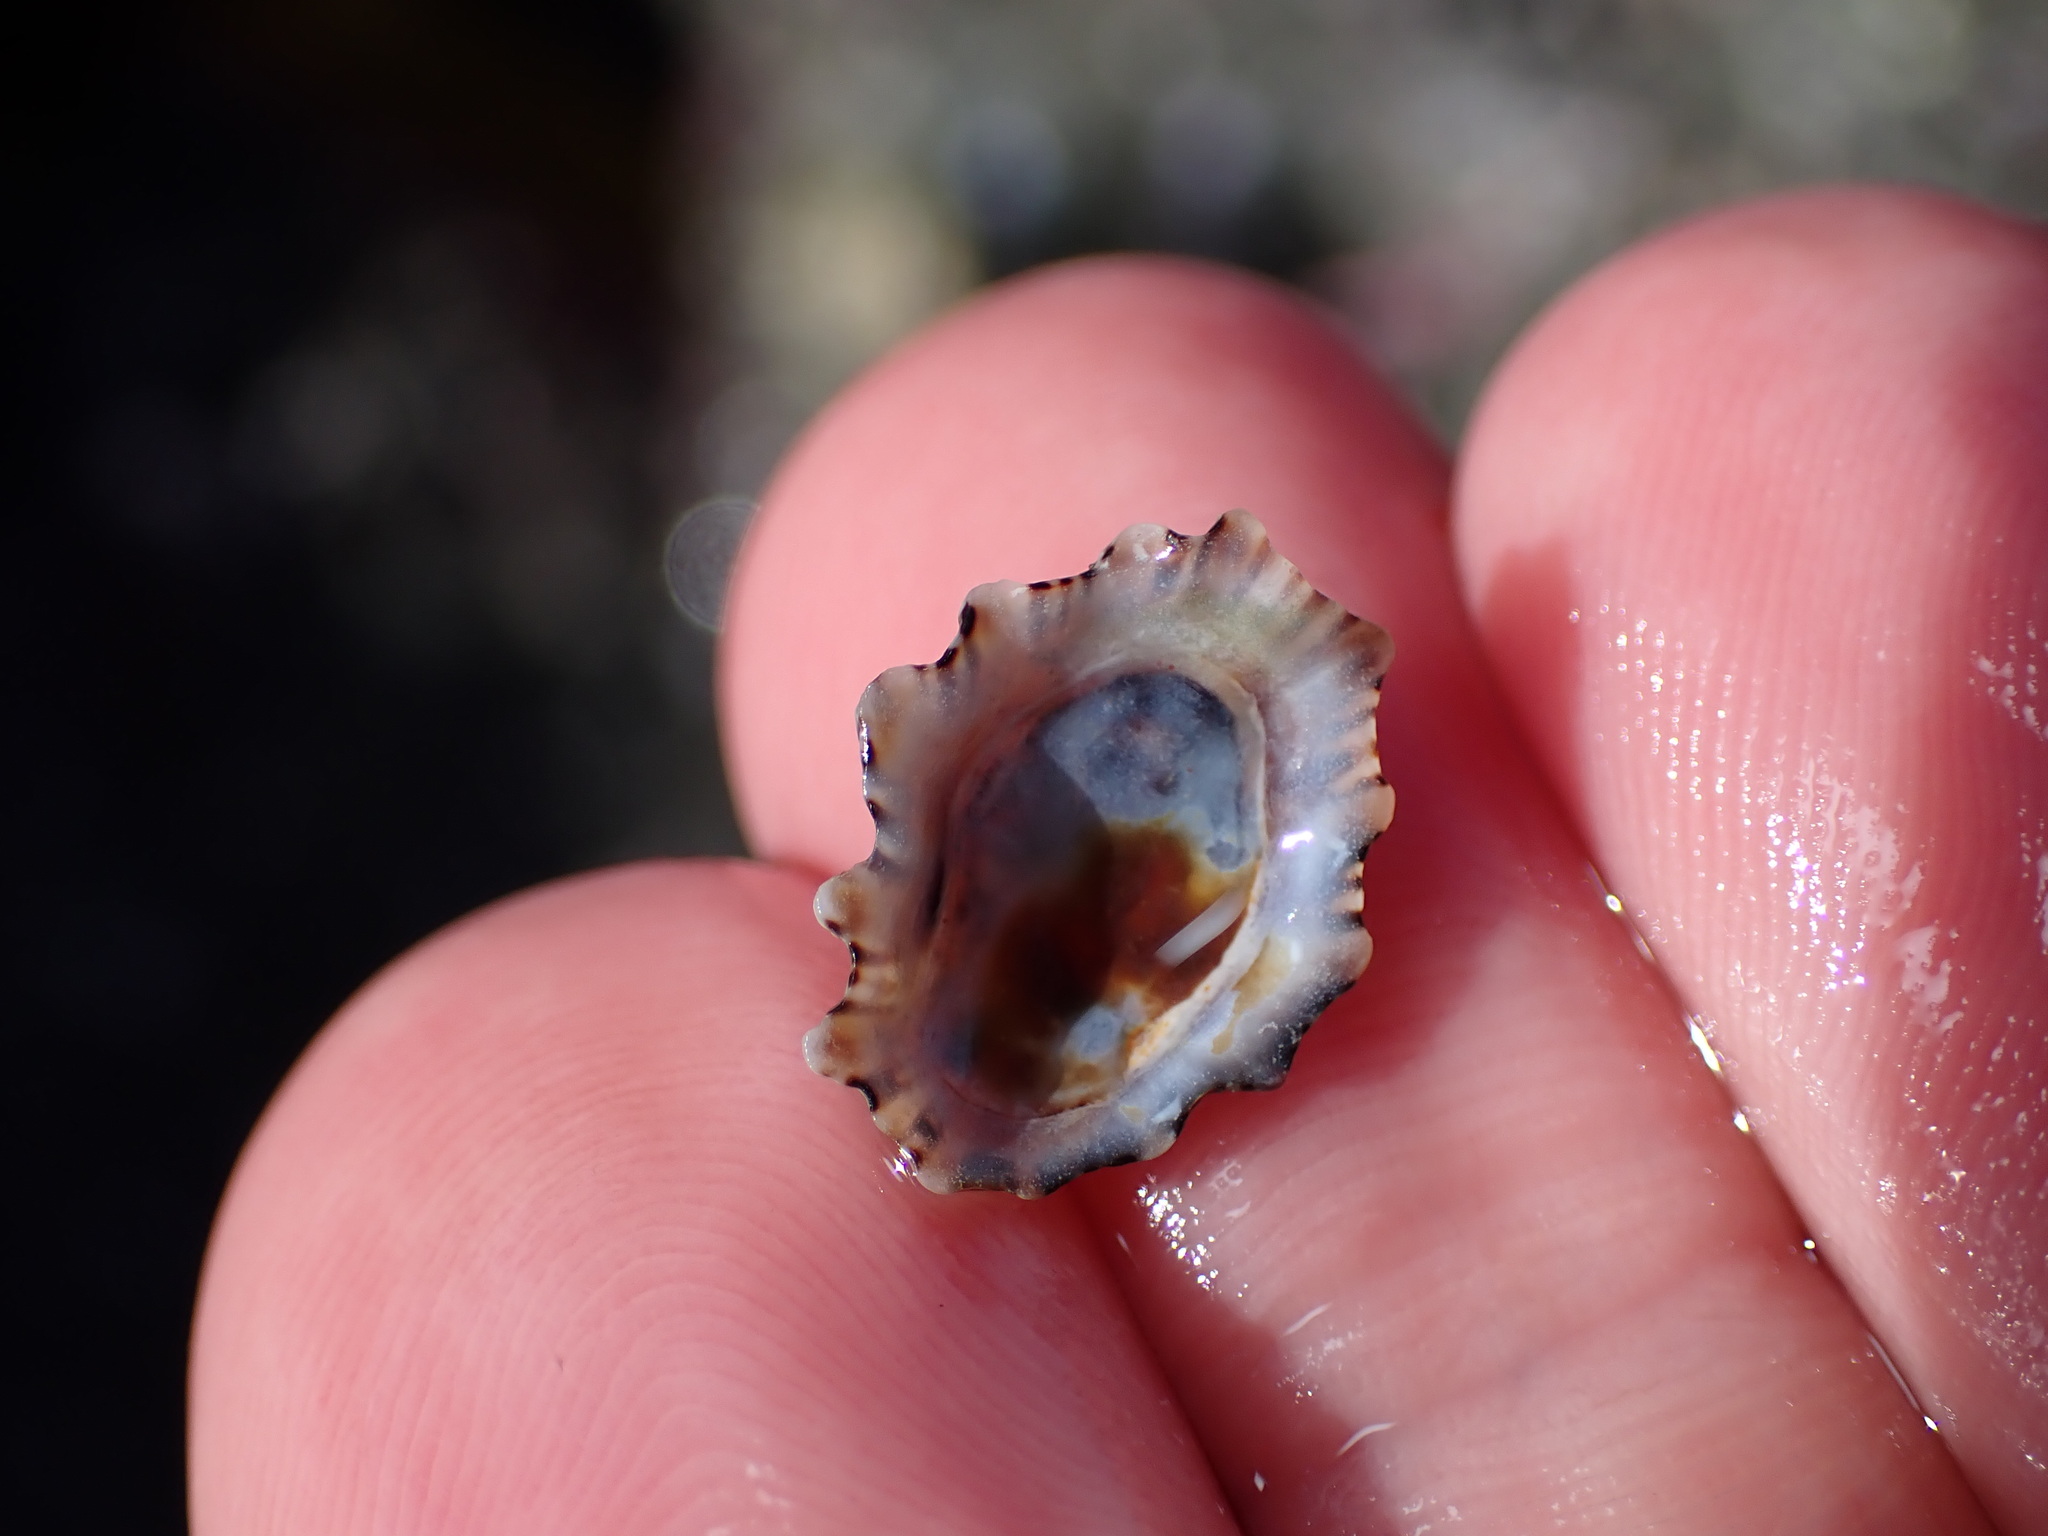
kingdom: Animalia
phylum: Mollusca
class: Gastropoda
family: Lottiidae
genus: Patelloida
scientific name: Patelloida corticata
